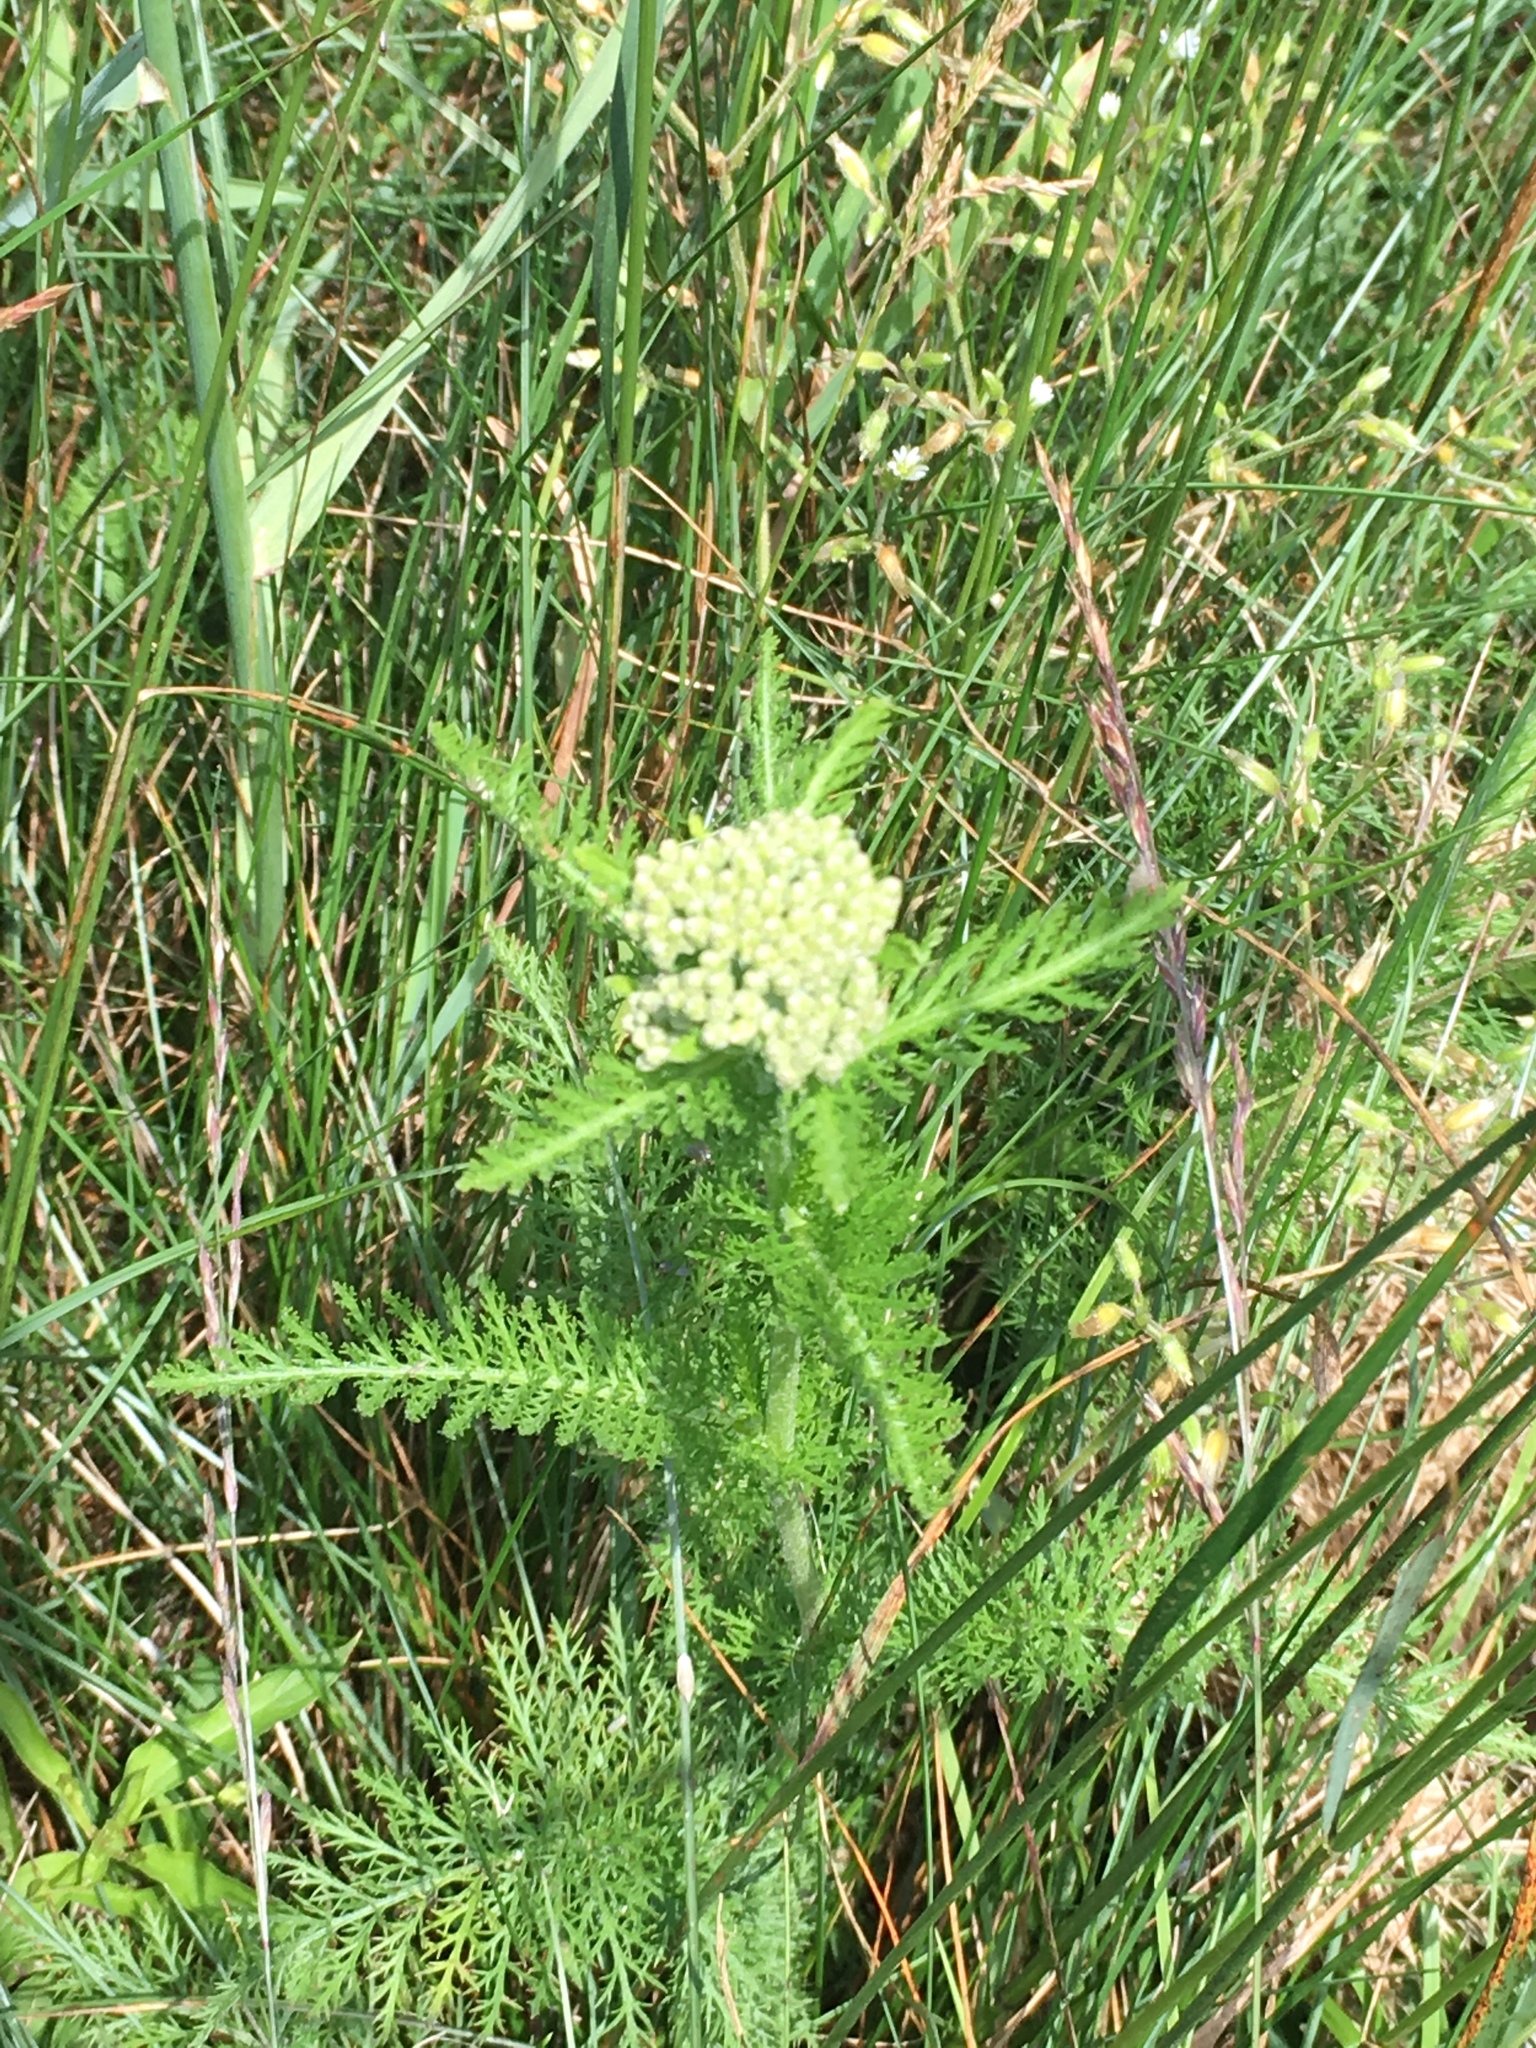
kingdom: Plantae
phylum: Tracheophyta
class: Magnoliopsida
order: Asterales
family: Asteraceae
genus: Achillea
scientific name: Achillea millefolium
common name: Yarrow
